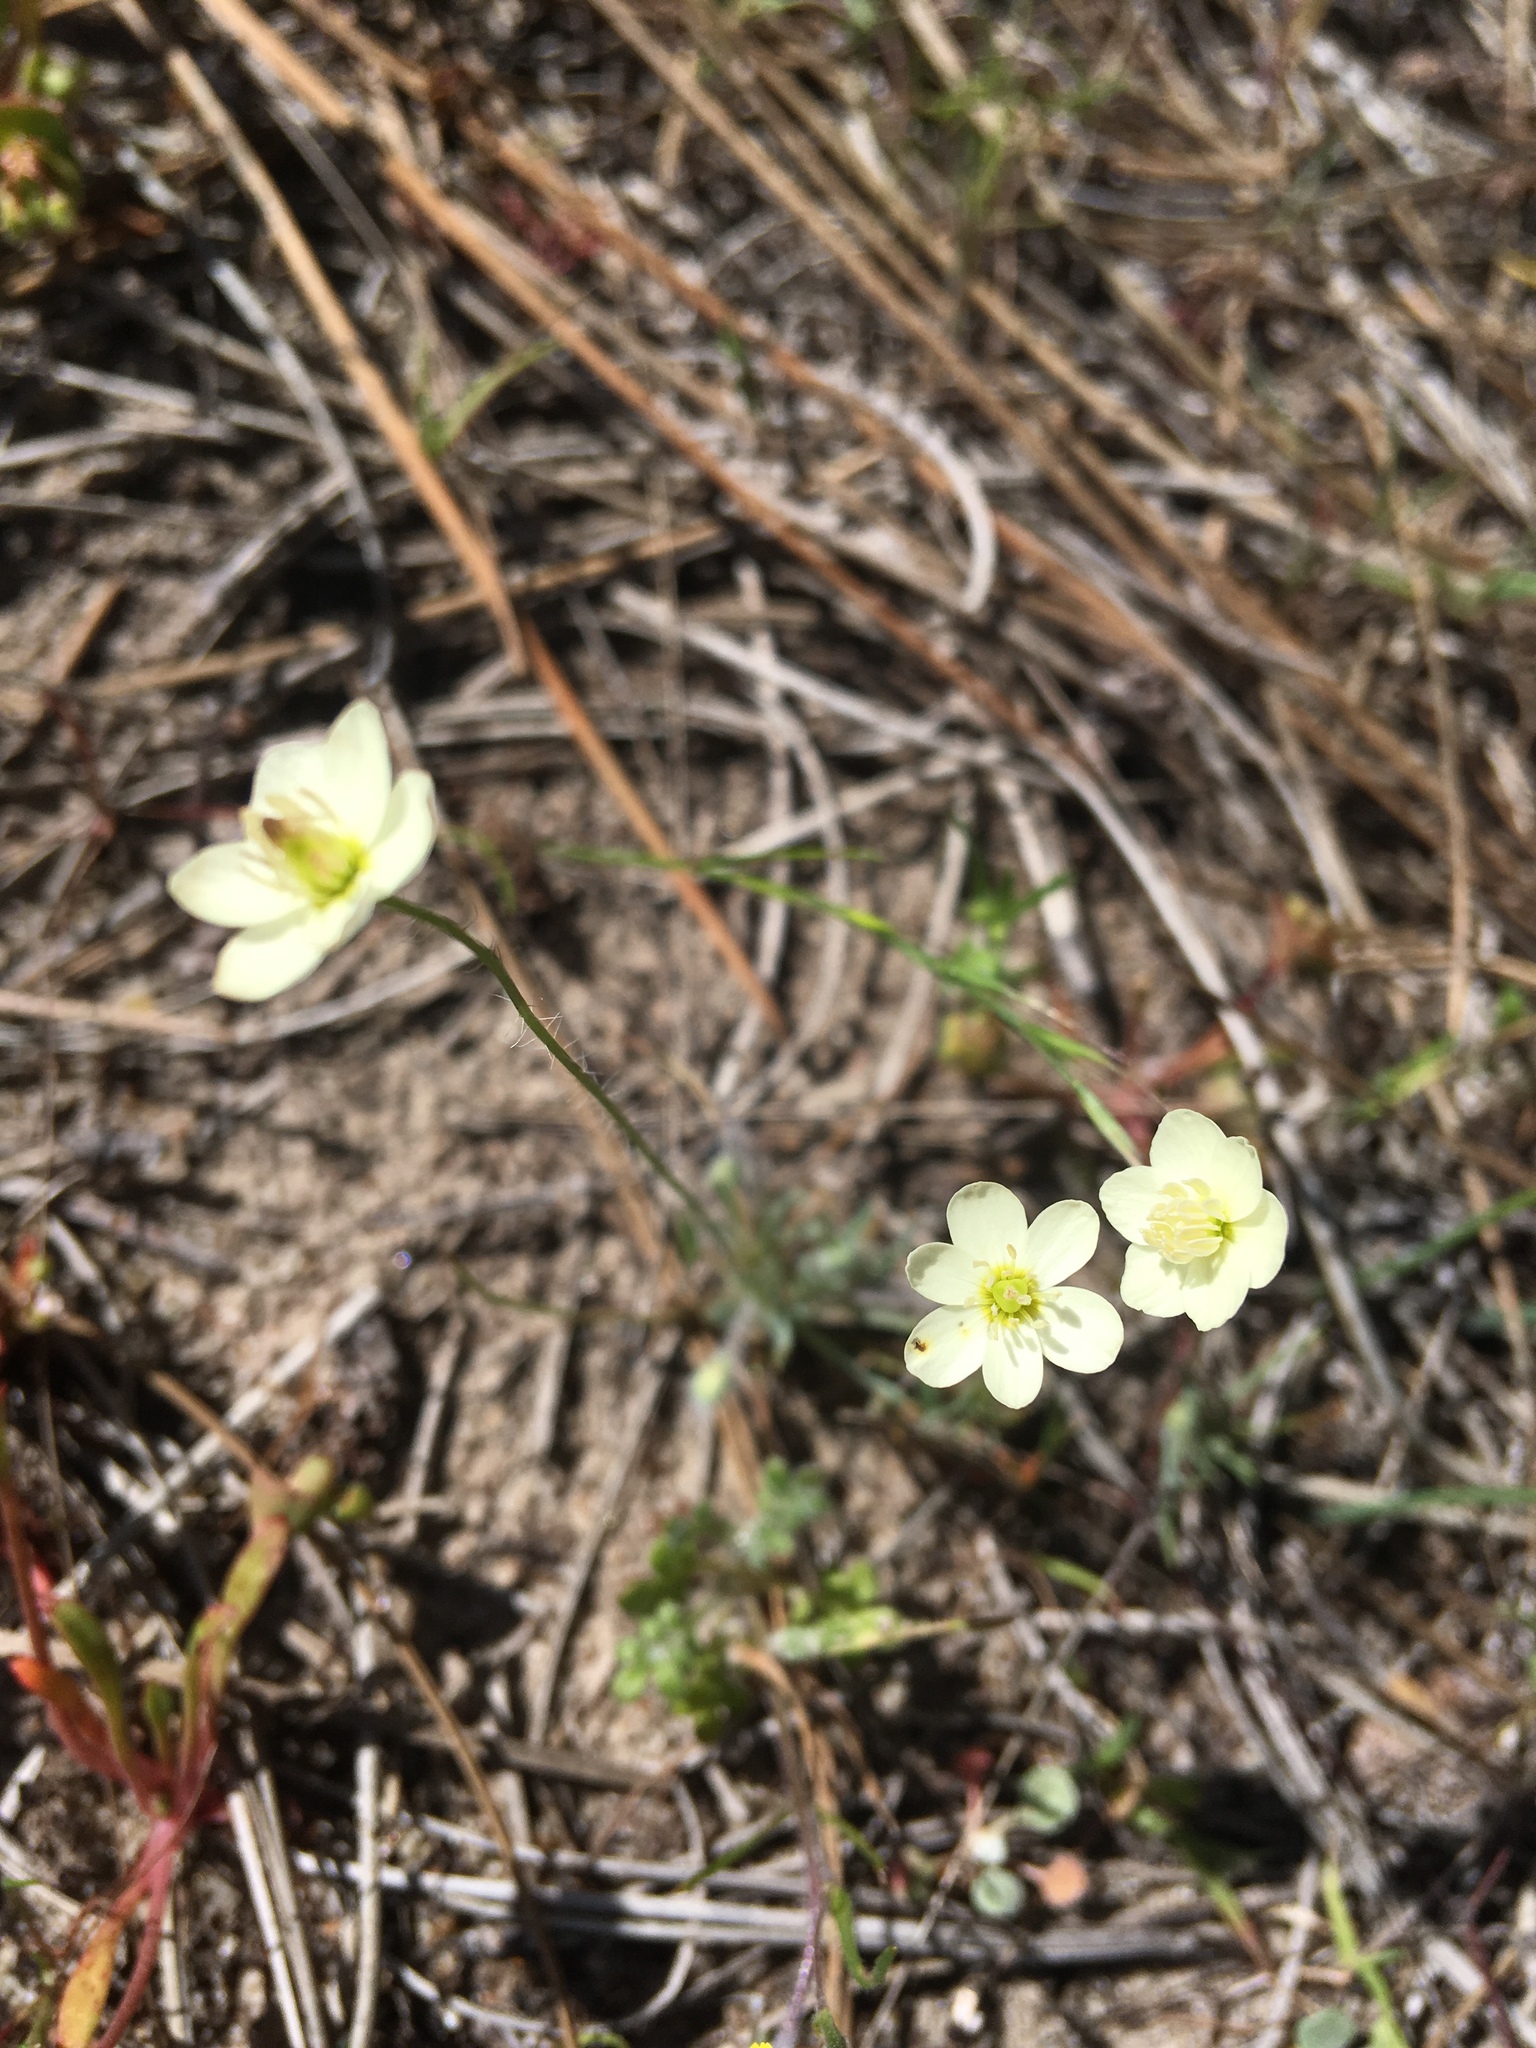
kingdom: Plantae
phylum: Tracheophyta
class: Magnoliopsida
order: Ranunculales
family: Papaveraceae
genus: Platystemon
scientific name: Platystemon californicus
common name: Cream-cups
